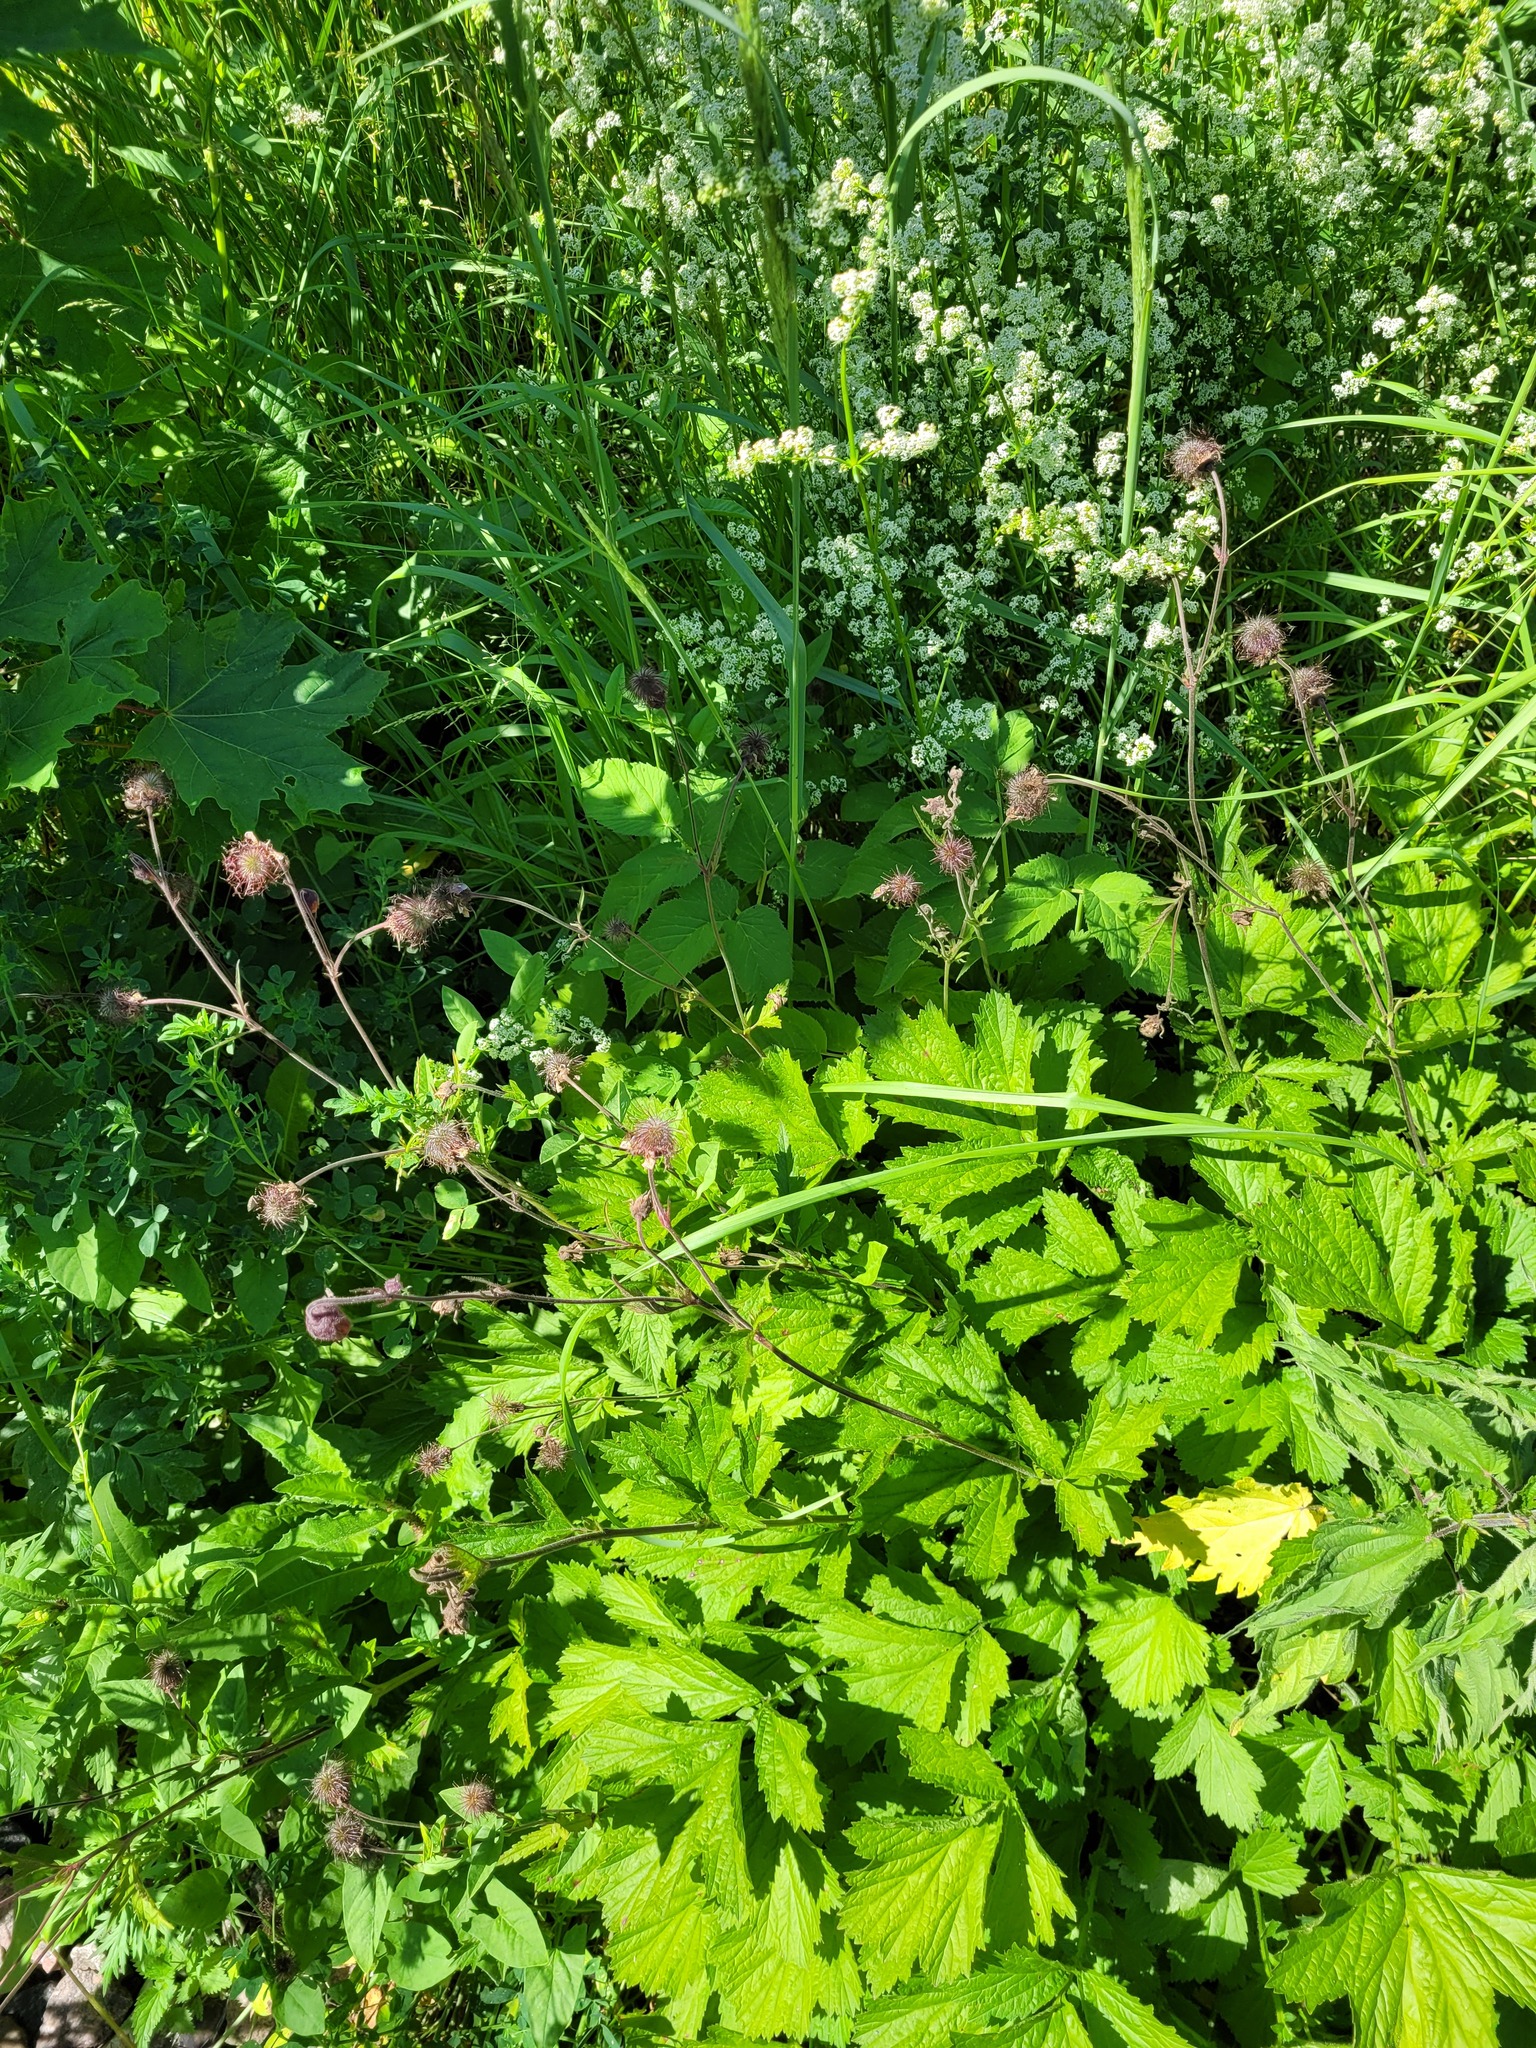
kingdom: Plantae
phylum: Tracheophyta
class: Magnoliopsida
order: Rosales
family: Rosaceae
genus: Geum
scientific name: Geum rivale
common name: Water avens
